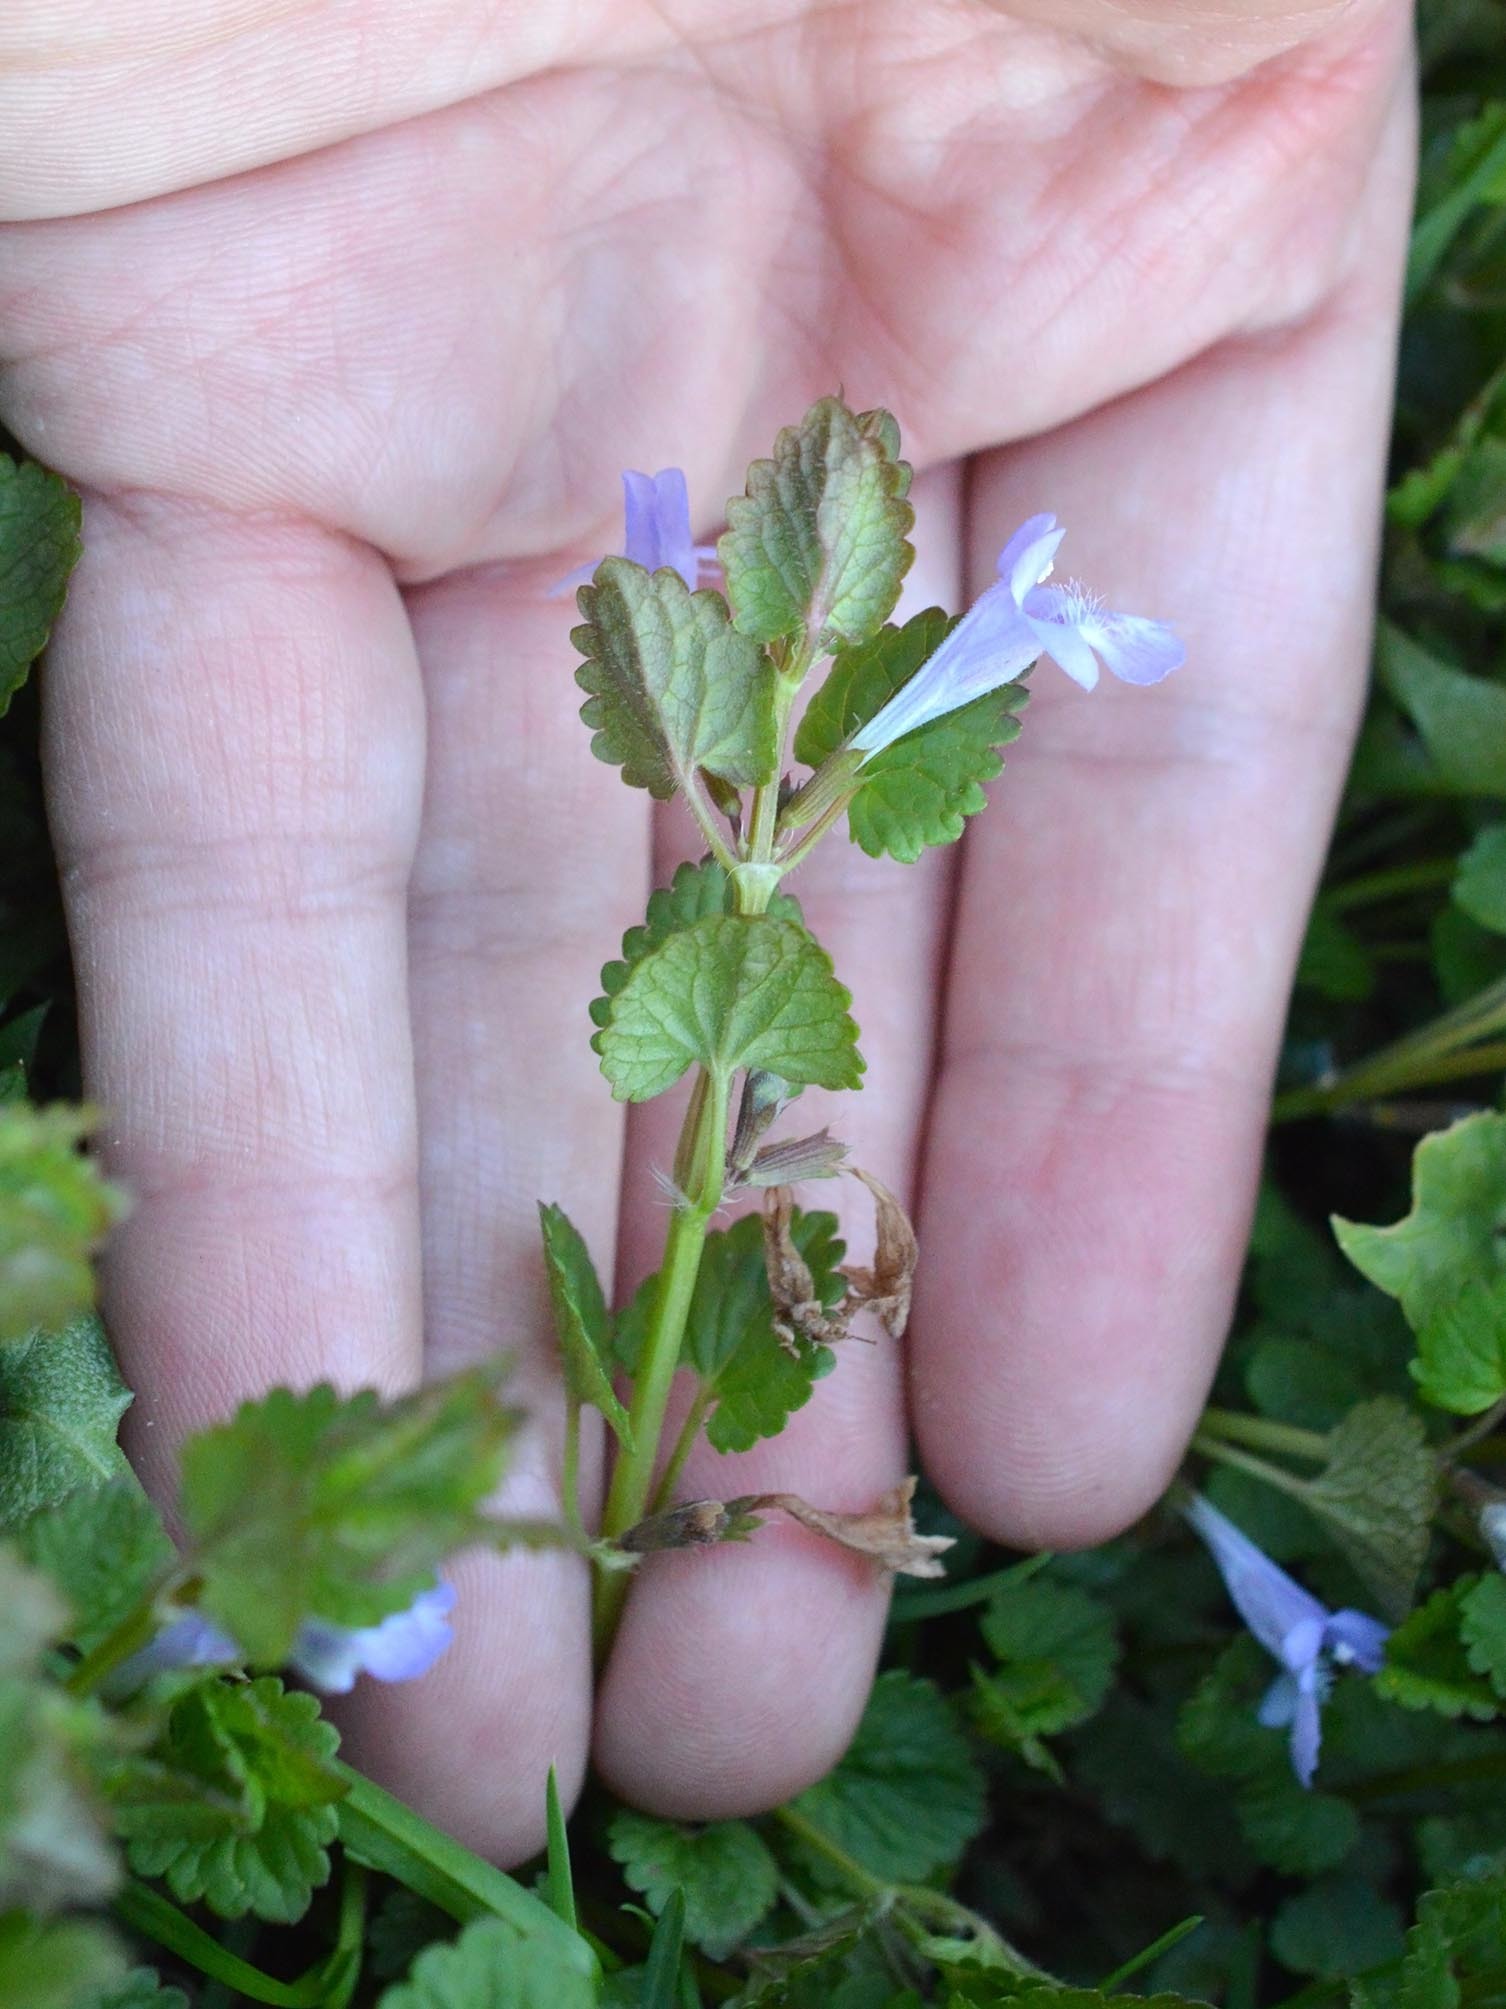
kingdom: Plantae
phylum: Tracheophyta
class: Magnoliopsida
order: Lamiales
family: Lamiaceae
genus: Glechoma
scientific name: Glechoma hederacea
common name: Ground ivy
